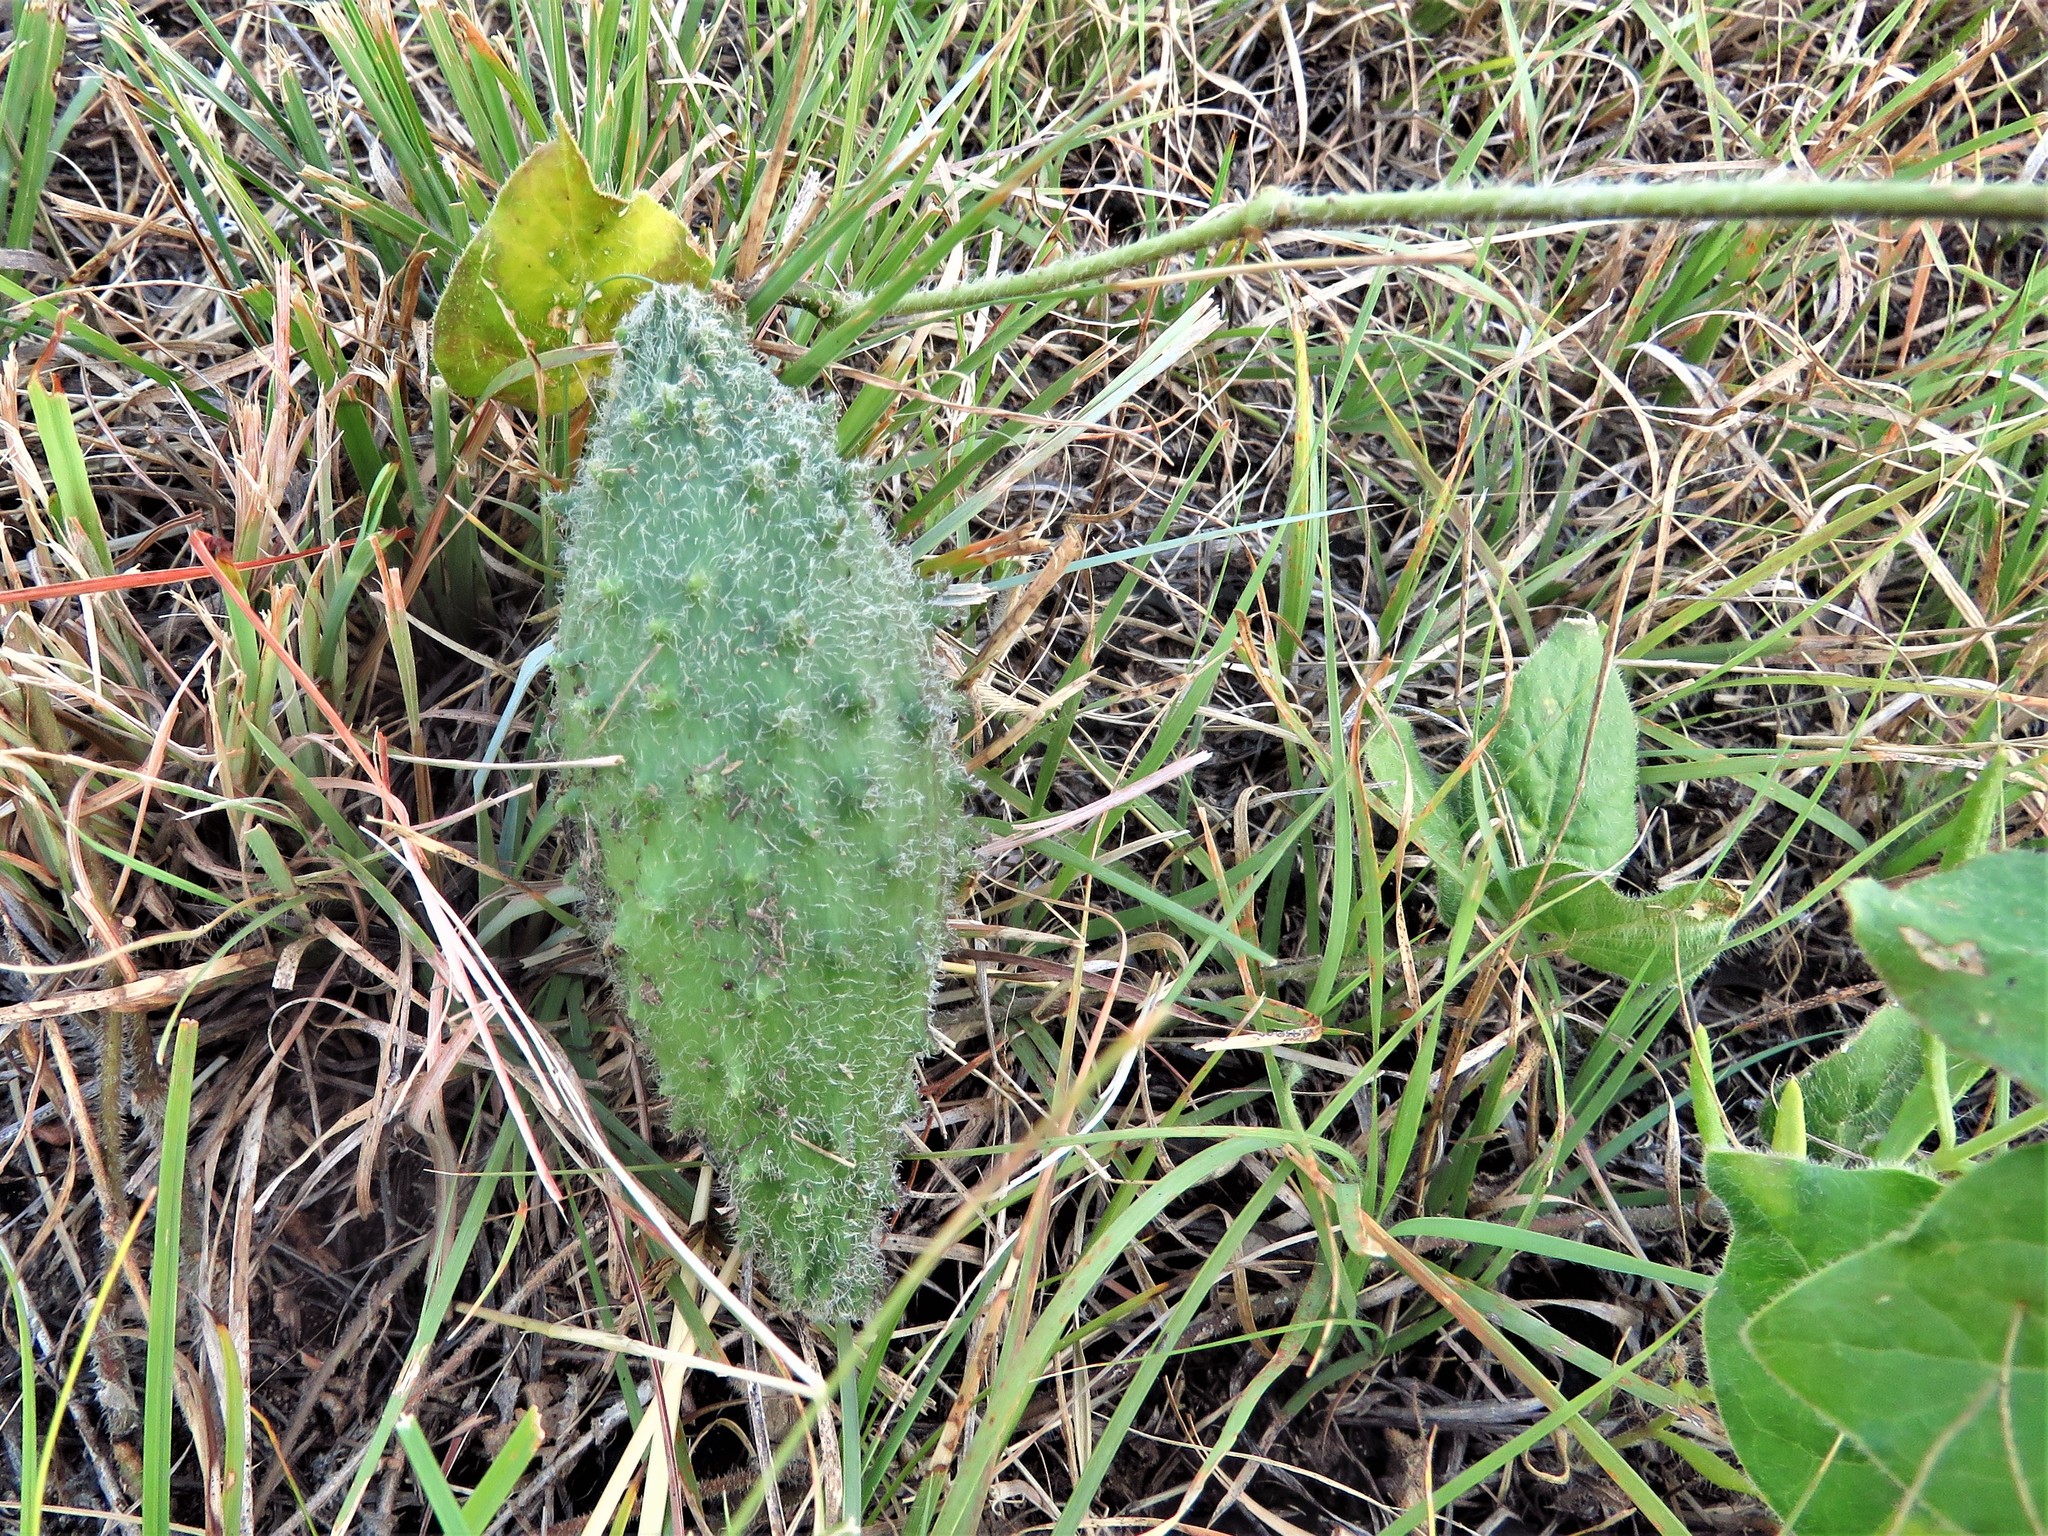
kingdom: Plantae
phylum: Tracheophyta
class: Magnoliopsida
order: Gentianales
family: Apocynaceae
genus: Chthamalia
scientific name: Chthamalia biflora
